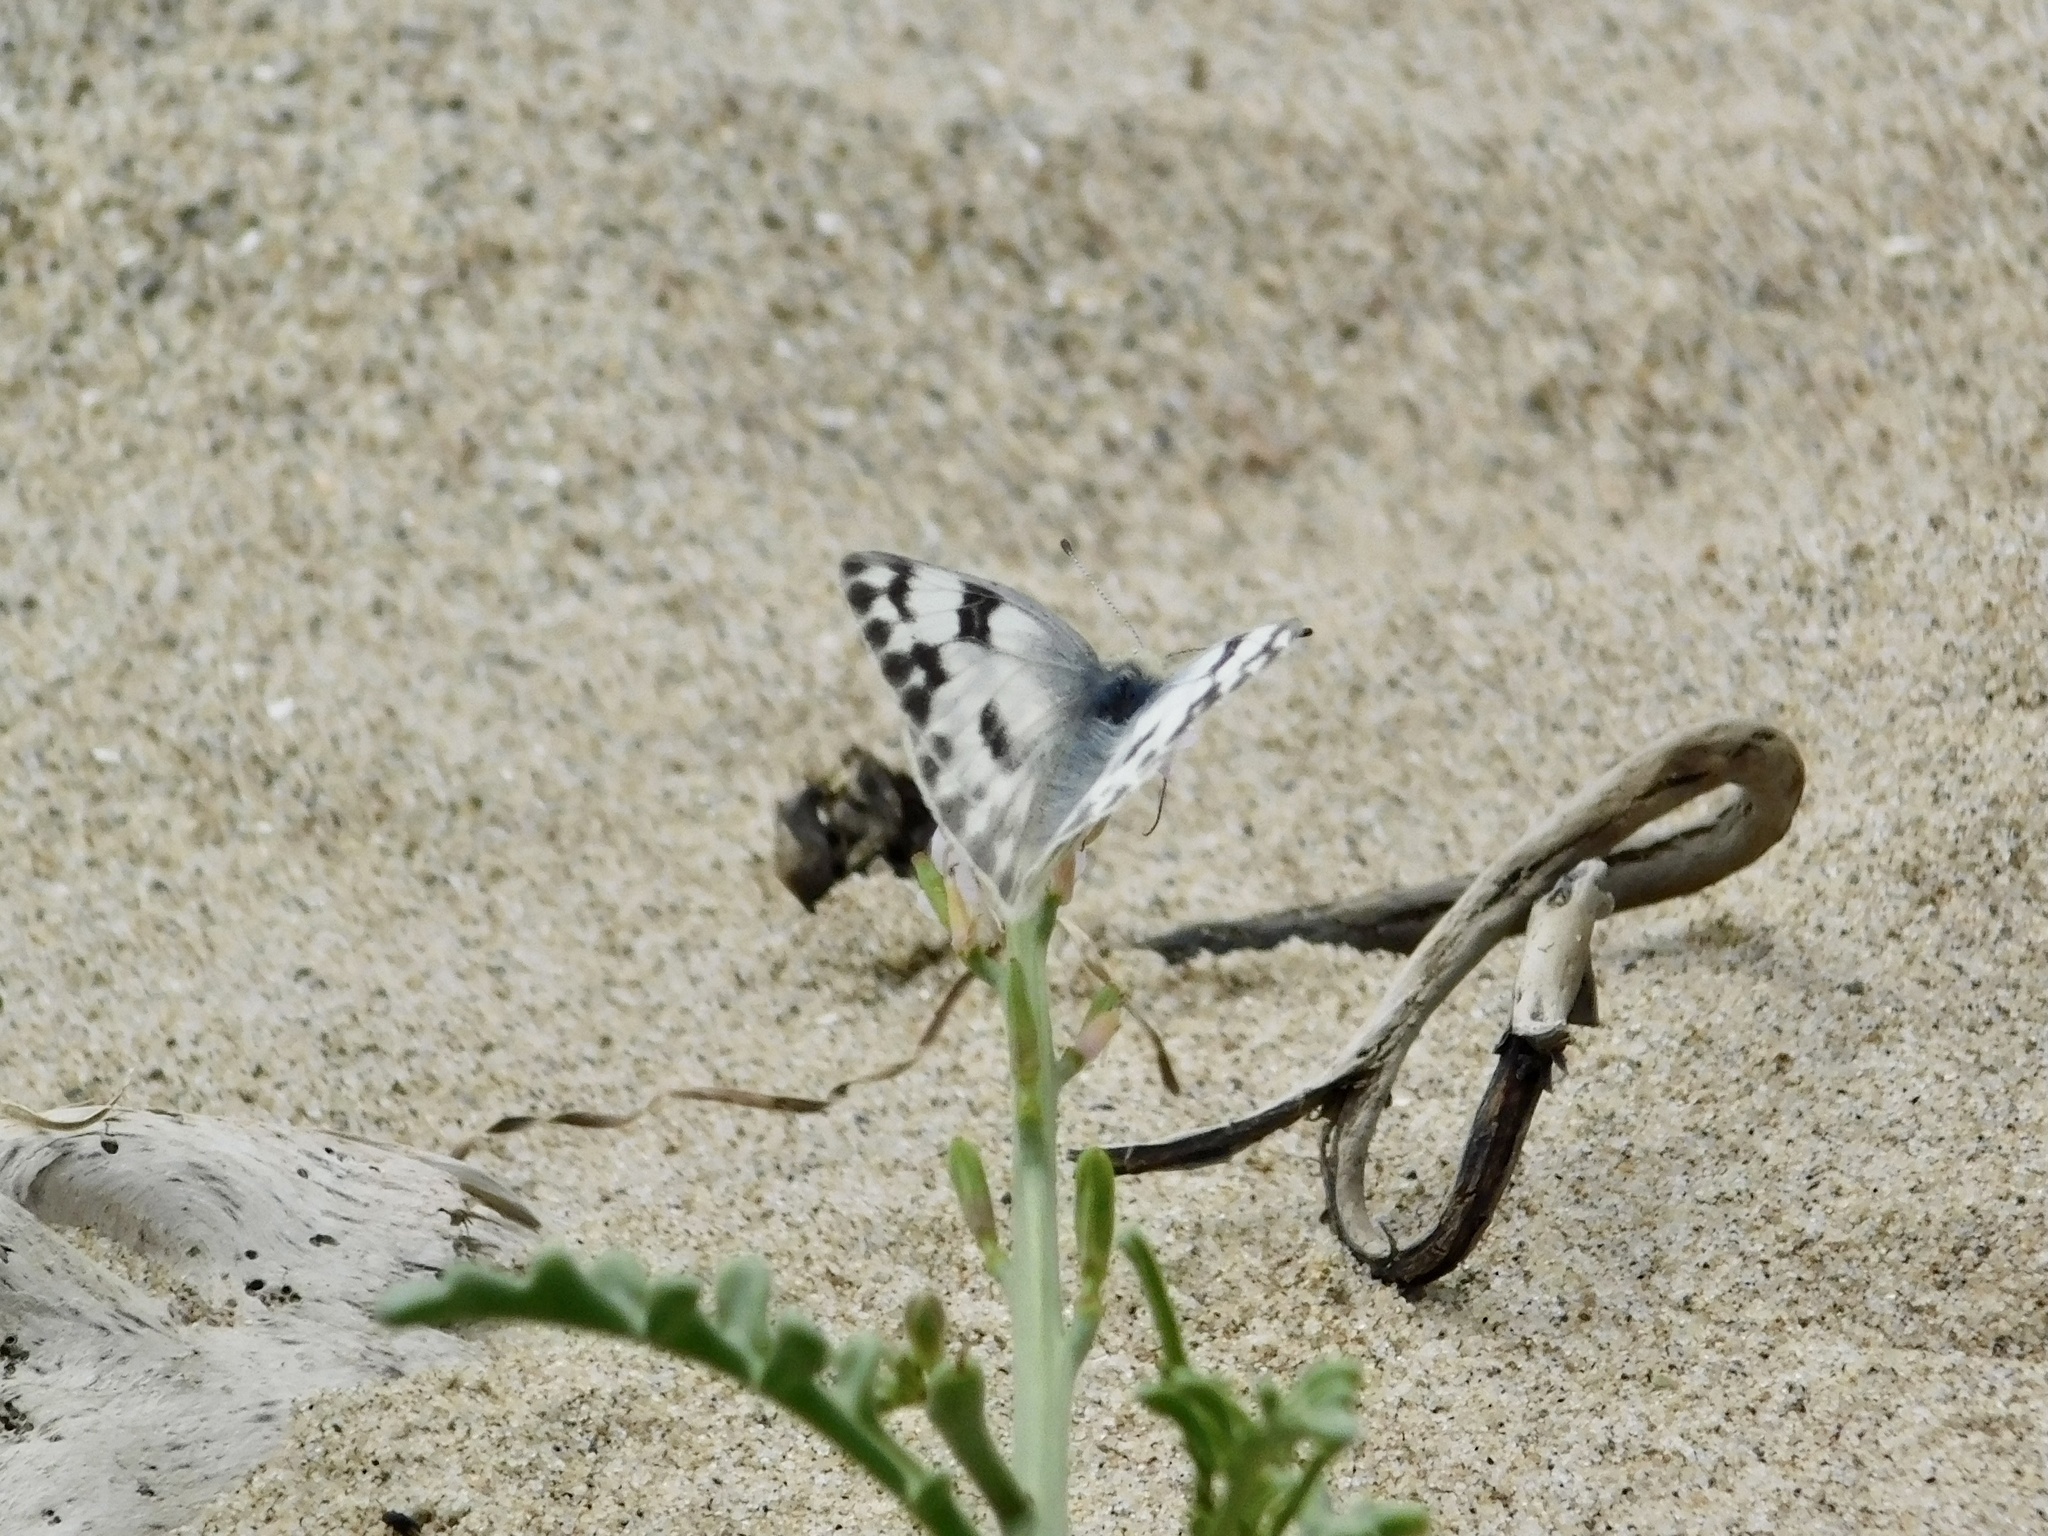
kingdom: Animalia
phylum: Arthropoda
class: Insecta
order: Lepidoptera
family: Pieridae
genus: Pontia
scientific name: Pontia protodice
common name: Checkered white
